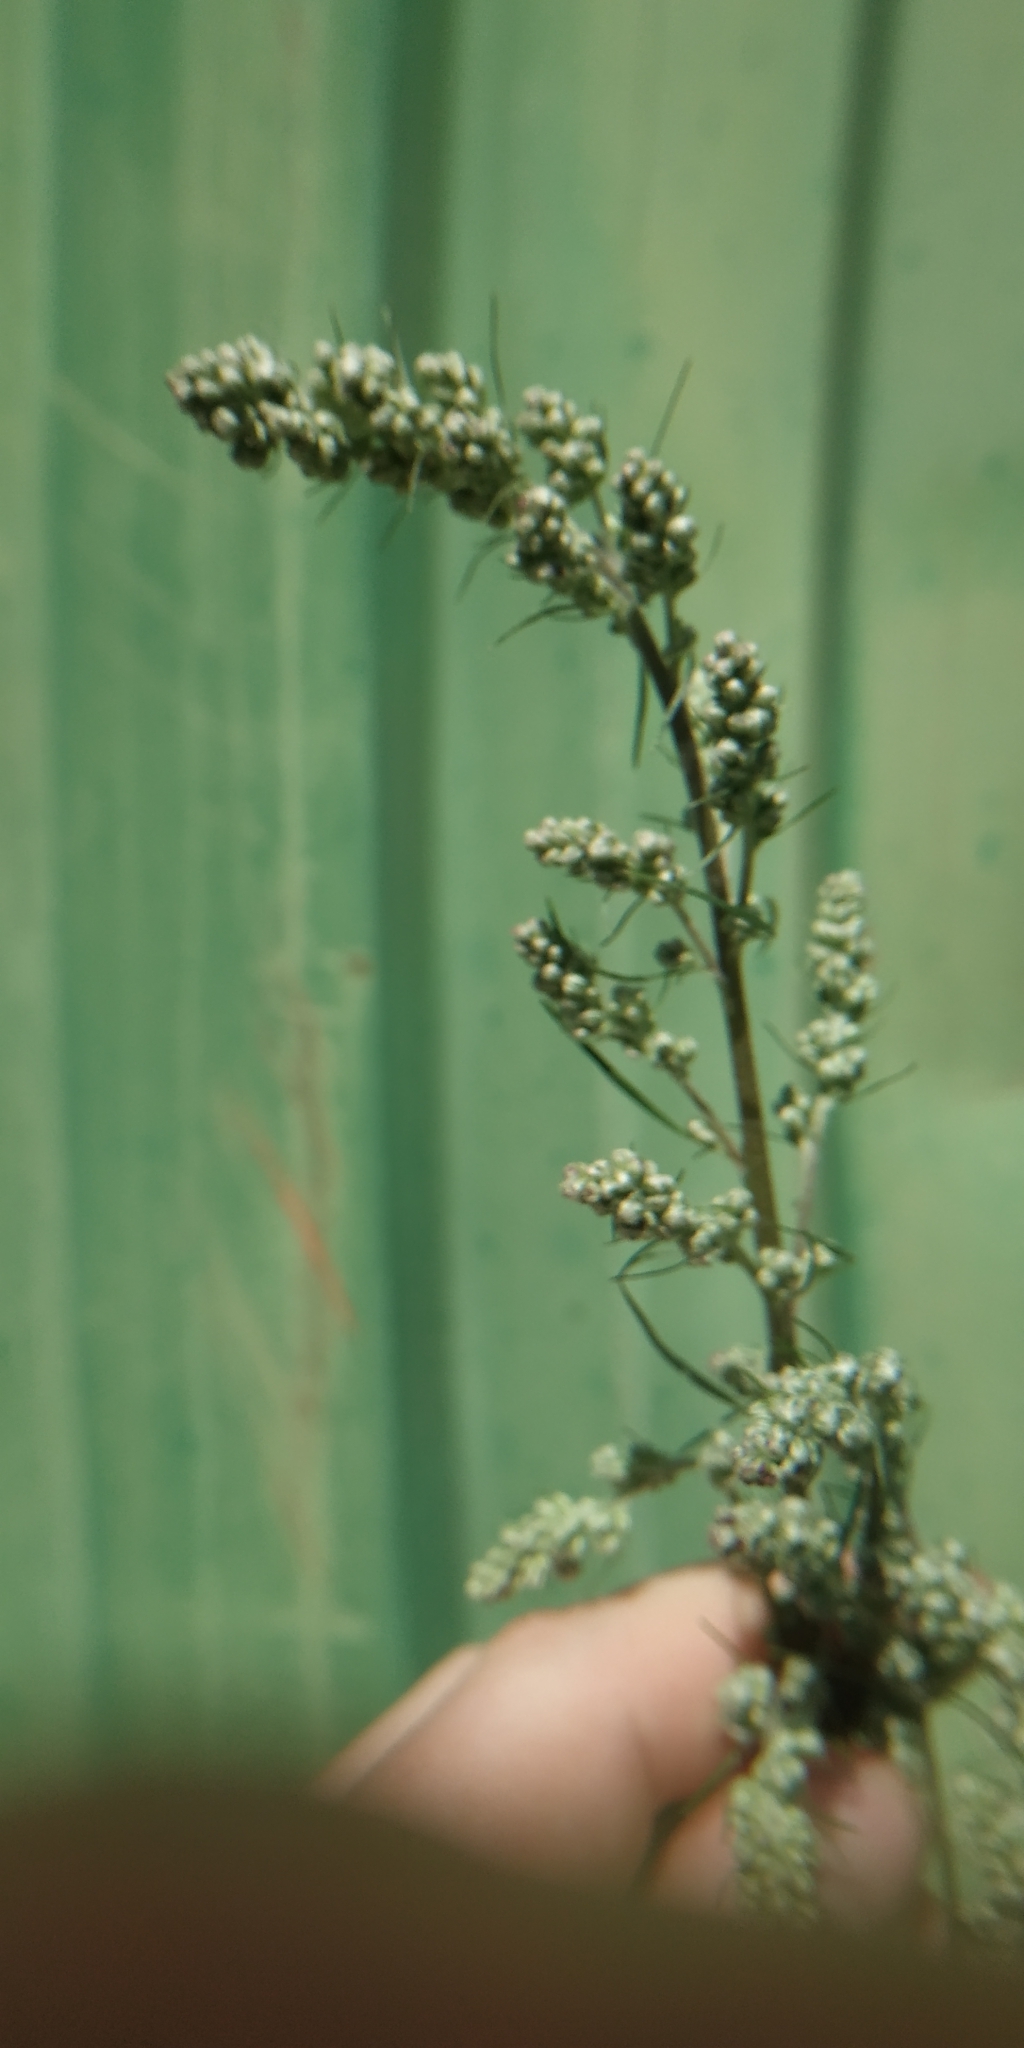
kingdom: Plantae
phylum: Tracheophyta
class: Magnoliopsida
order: Asterales
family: Asteraceae
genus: Artemisia
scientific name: Artemisia vulgaris
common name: Mugwort
